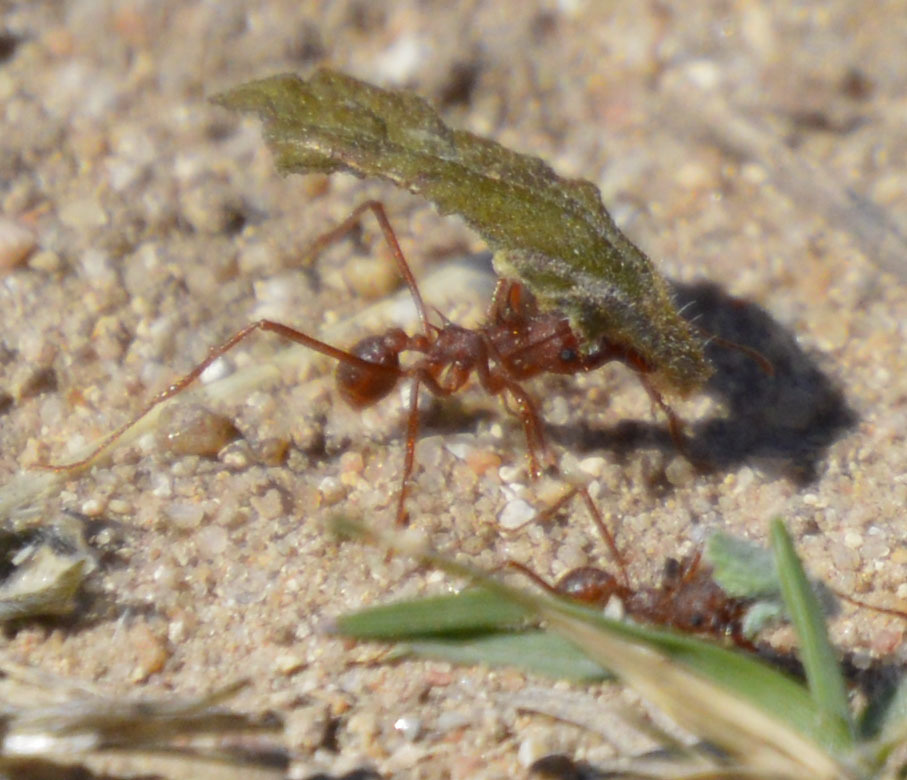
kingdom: Animalia
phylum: Arthropoda
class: Insecta
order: Hymenoptera
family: Formicidae
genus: Atta
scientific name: Atta texana
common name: Texas leafcutting ant
